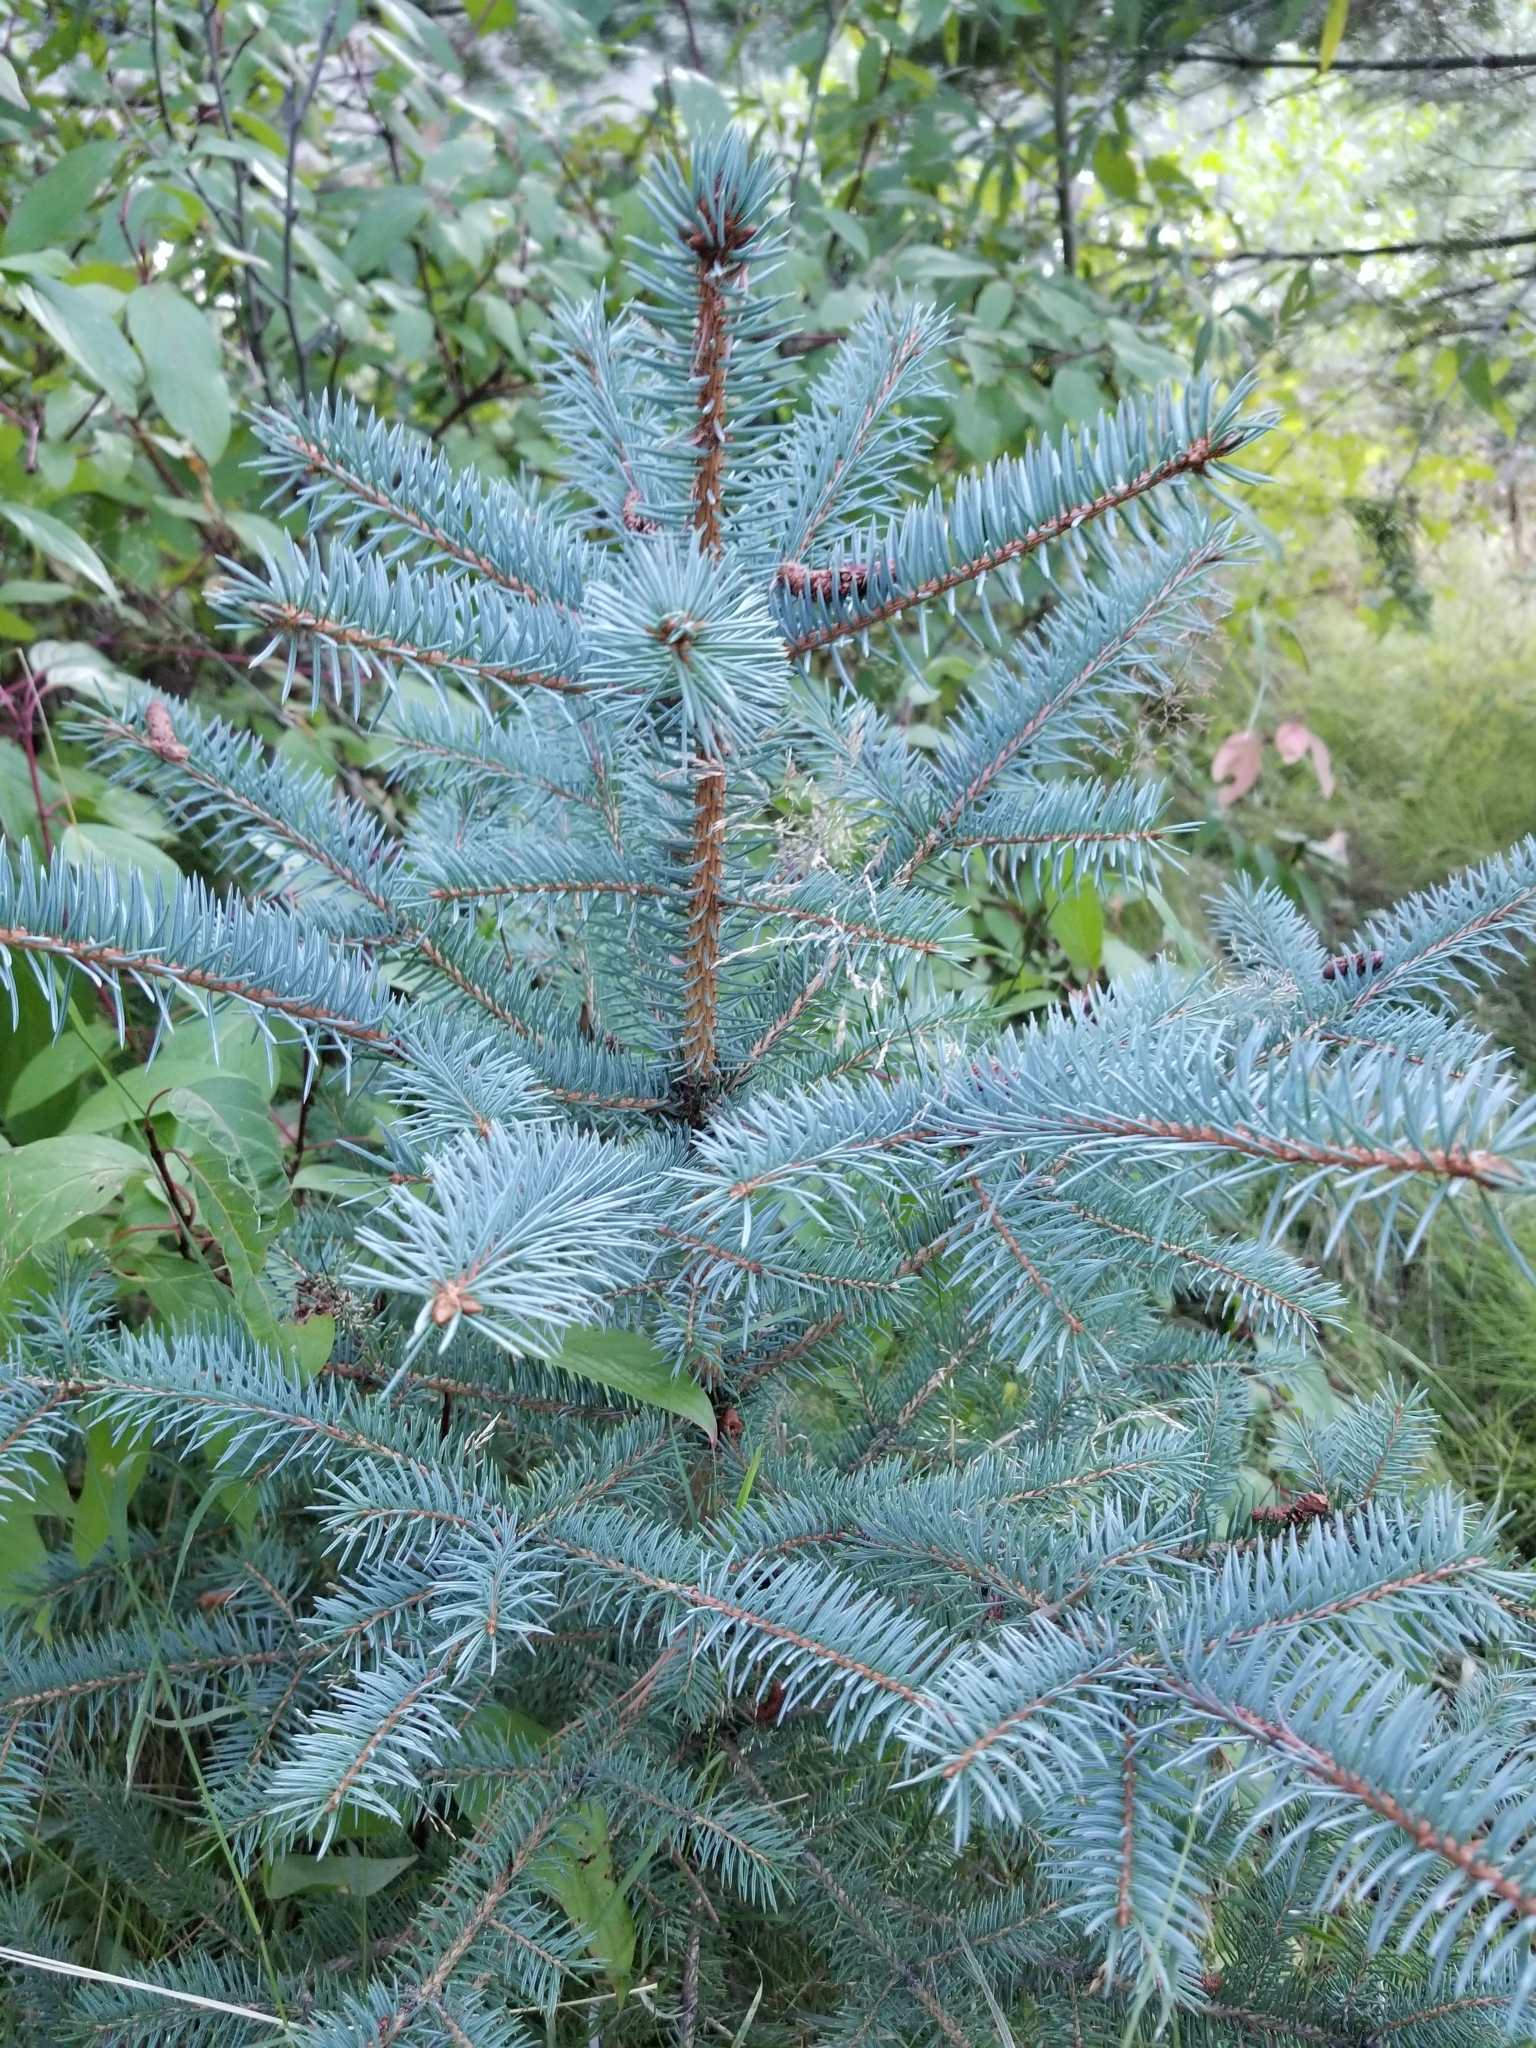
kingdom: Plantae
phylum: Tracheophyta
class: Pinopsida
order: Pinales
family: Pinaceae
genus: Picea
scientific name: Picea pungens
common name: Colorado spruce
